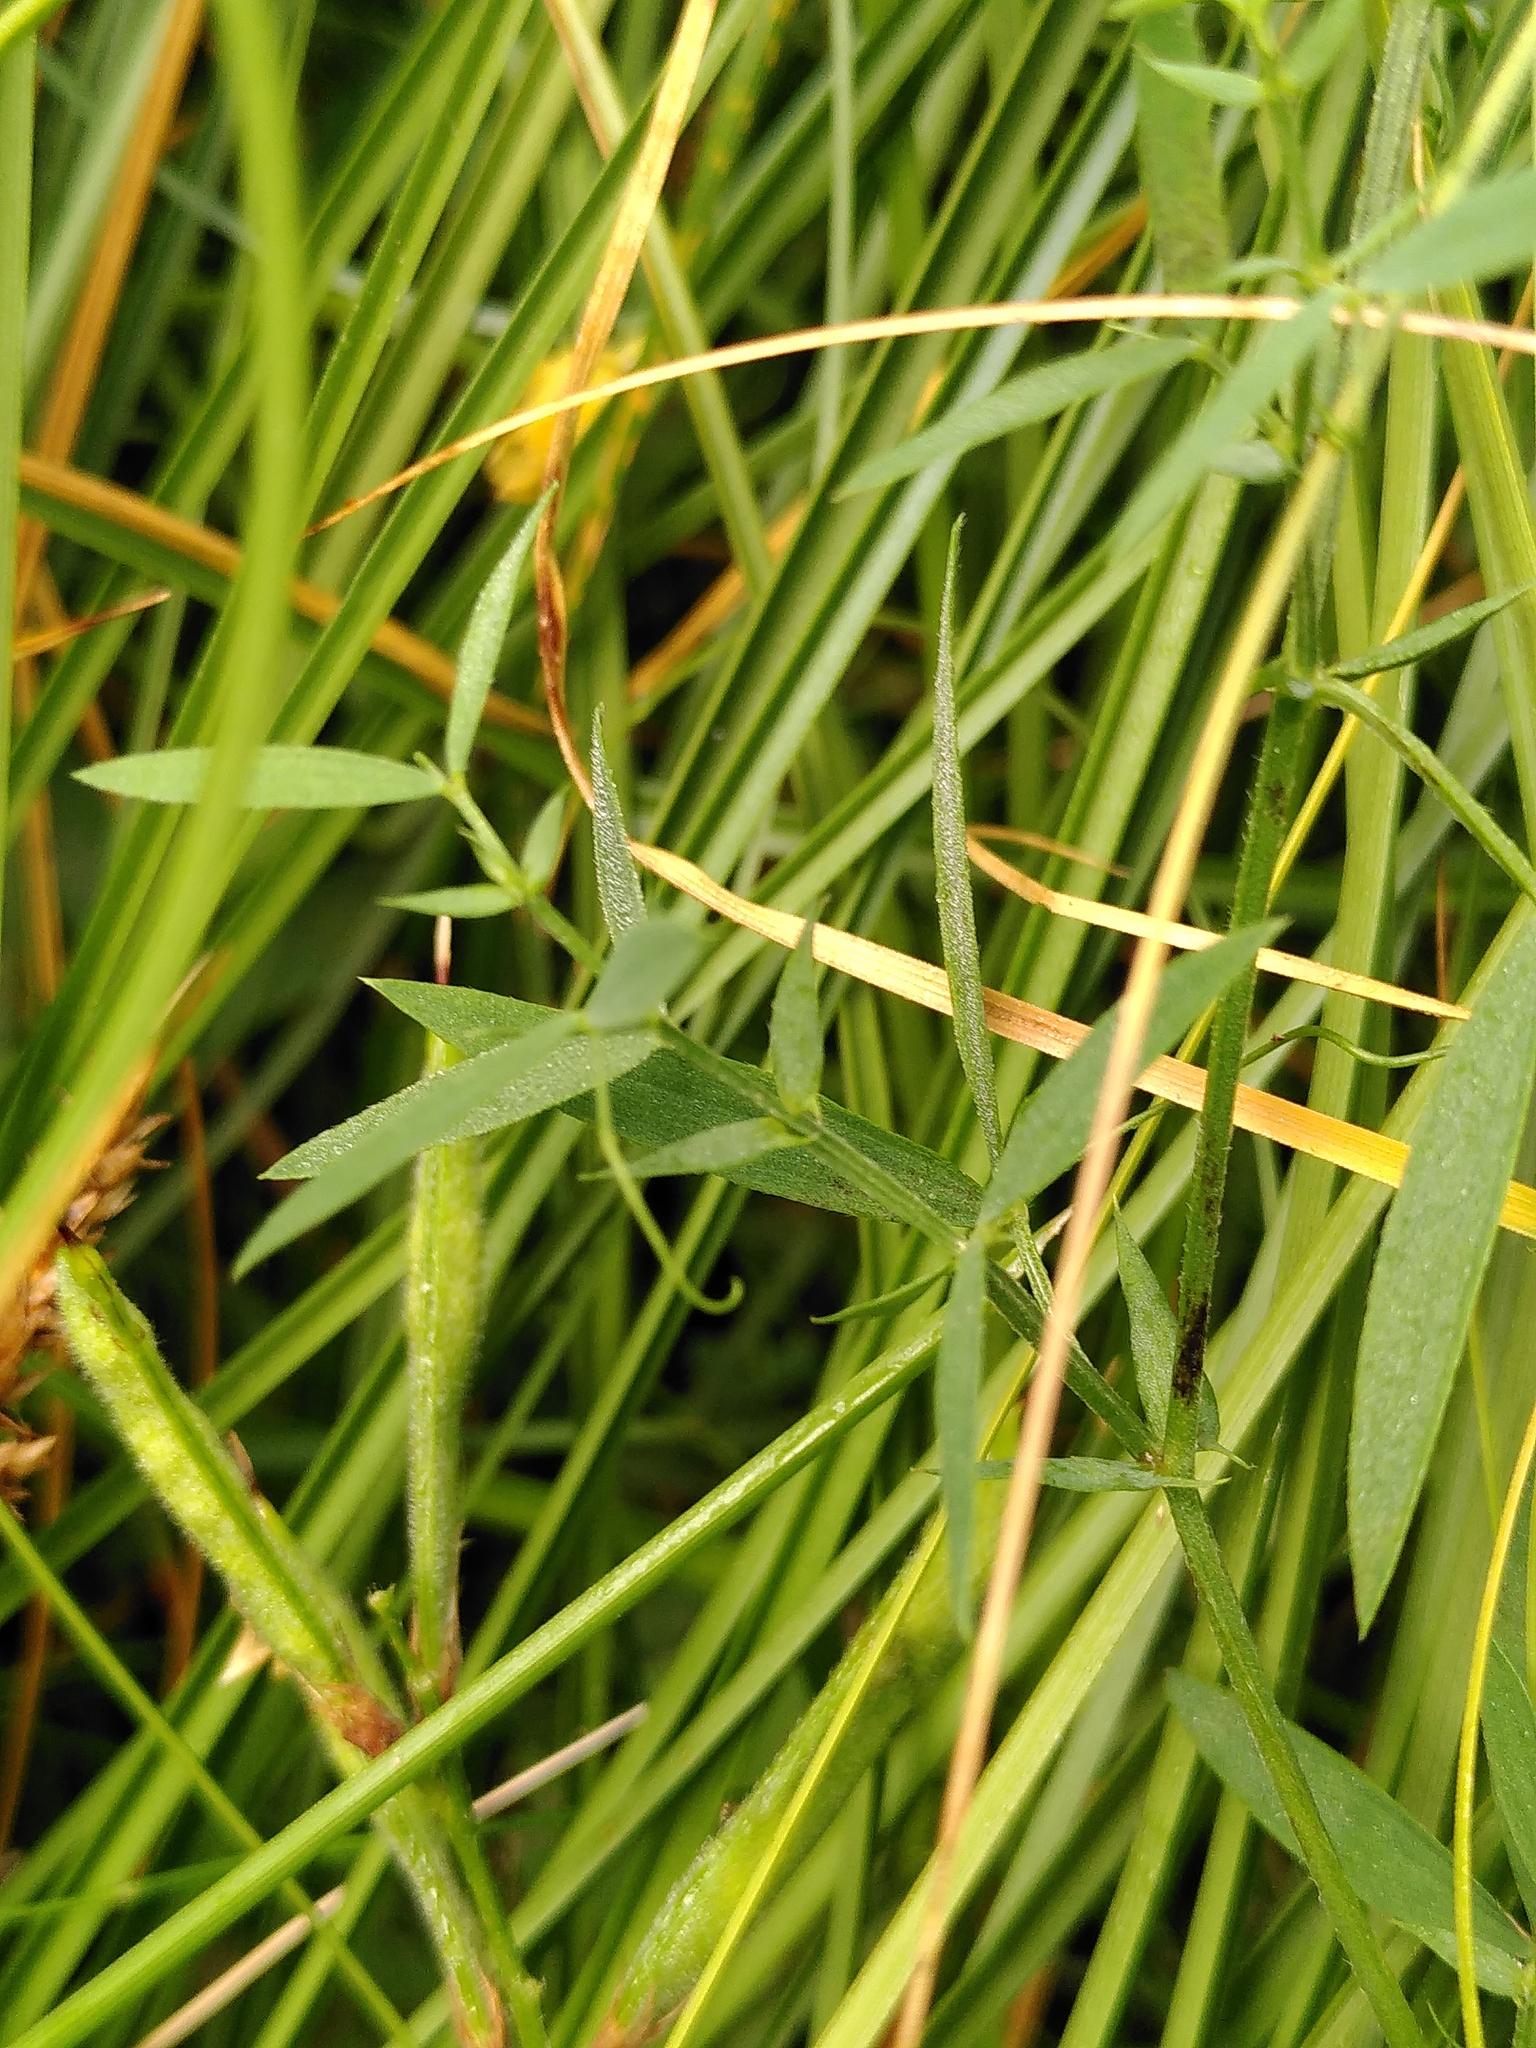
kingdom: Plantae
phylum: Tracheophyta
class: Magnoliopsida
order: Fabales
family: Fabaceae
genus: Lathyrus
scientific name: Lathyrus pratensis
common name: Meadow vetchling
